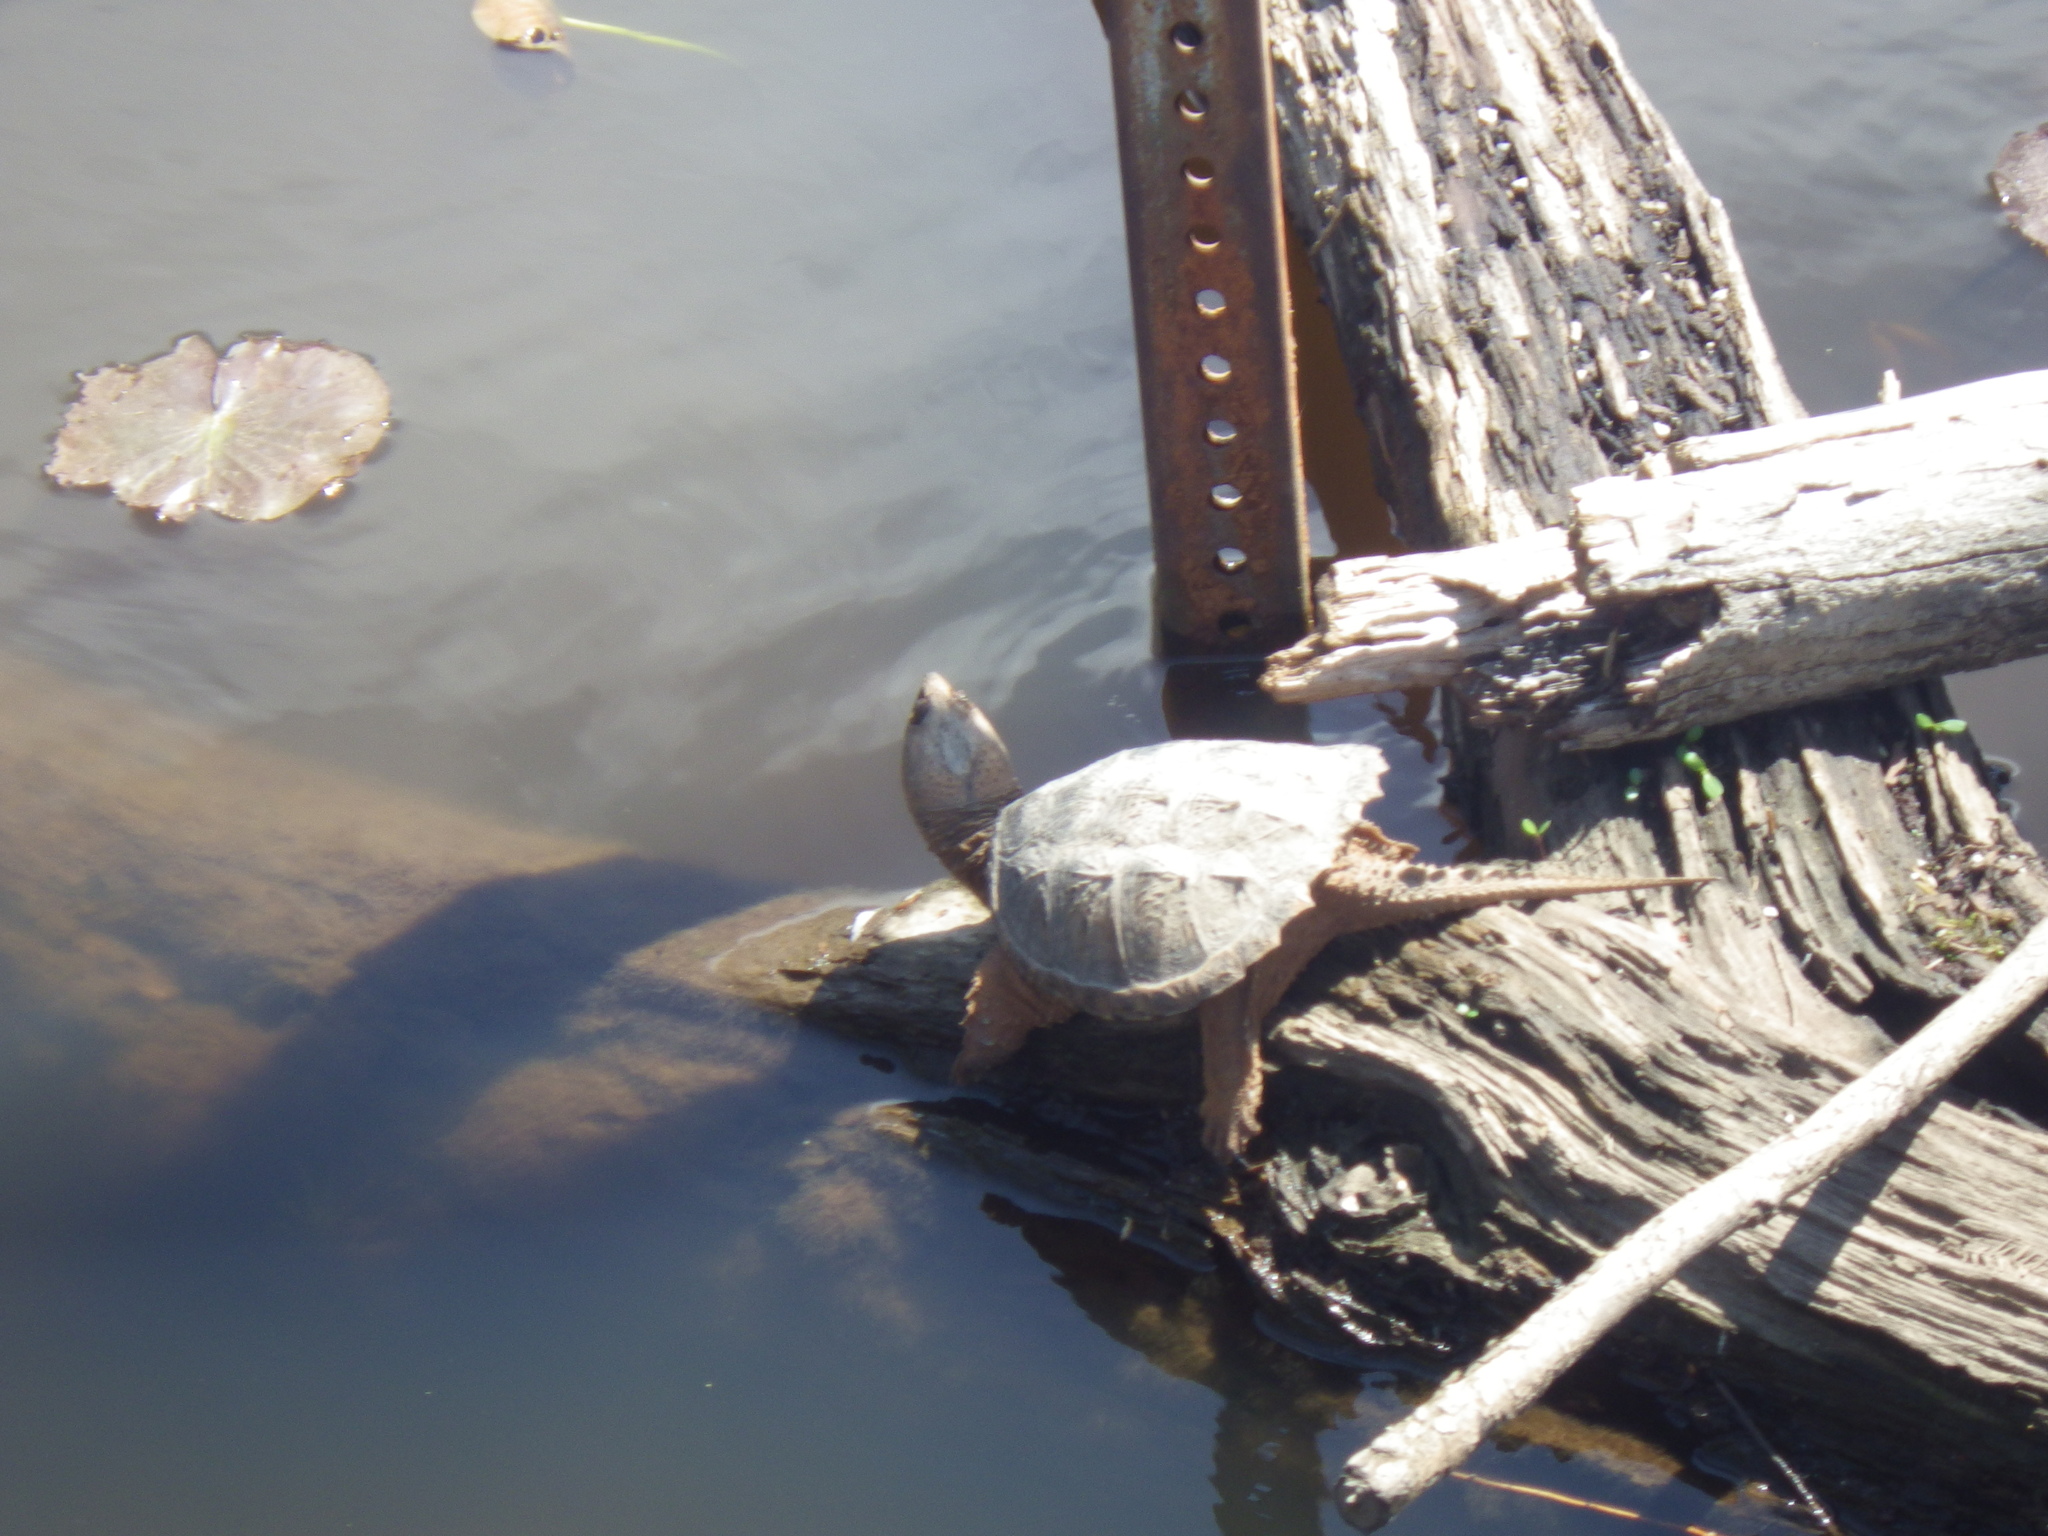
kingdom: Animalia
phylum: Chordata
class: Testudines
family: Chelydridae
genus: Chelydra
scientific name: Chelydra serpentina
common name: Common snapping turtle
